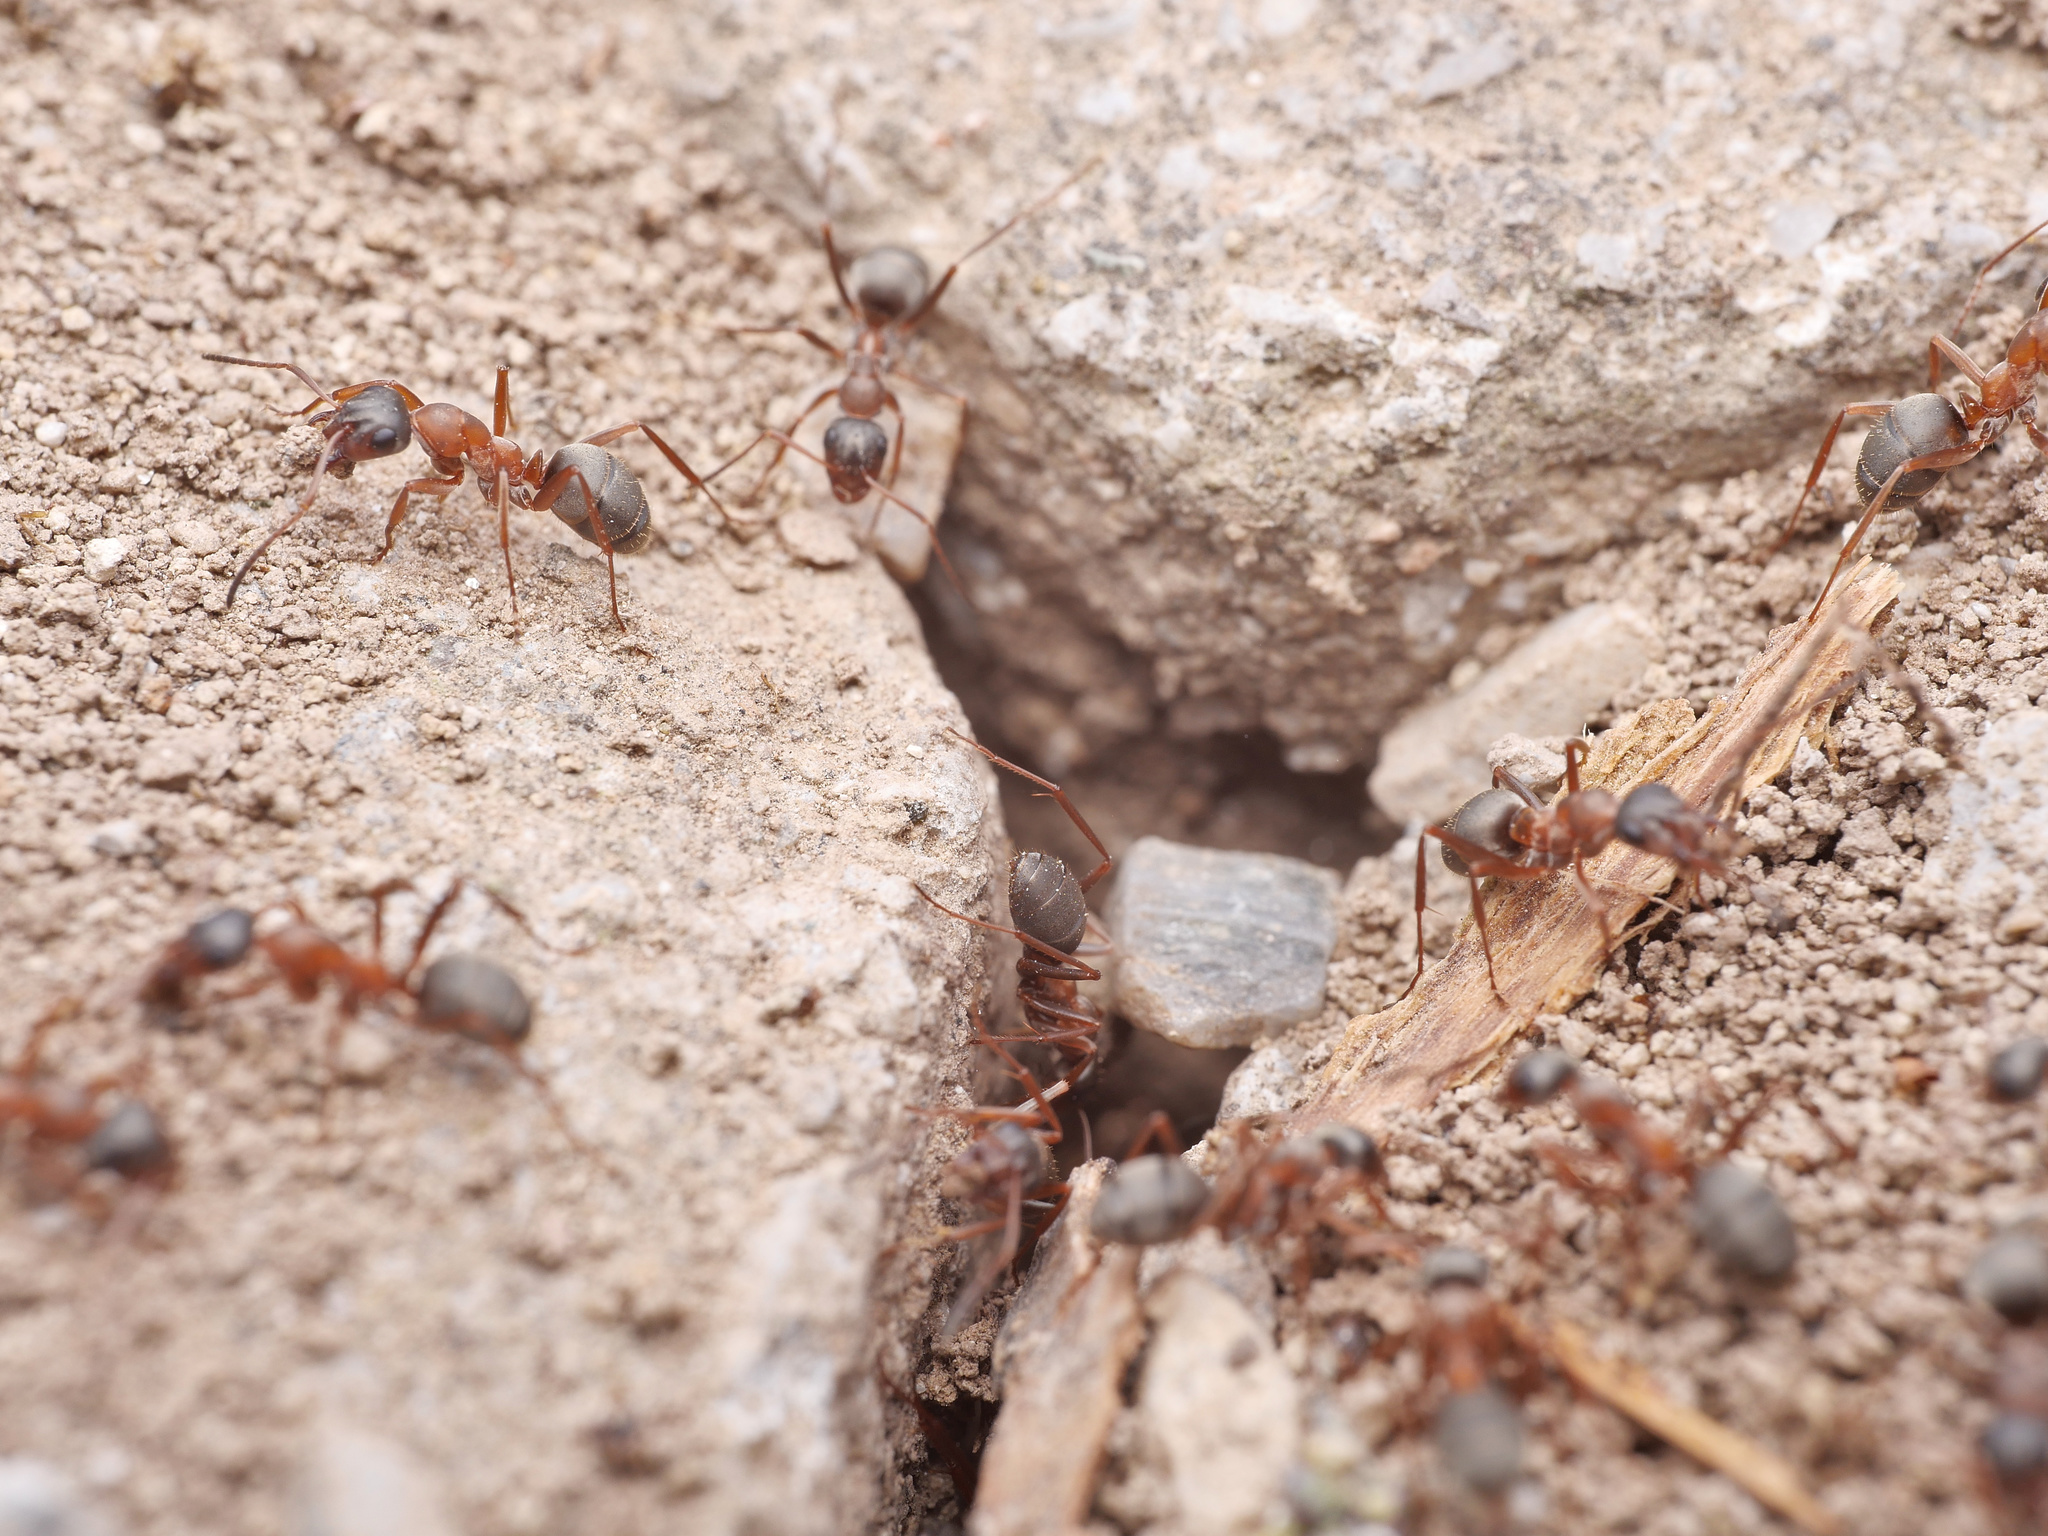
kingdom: Animalia
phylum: Arthropoda
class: Insecta
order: Hymenoptera
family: Formicidae
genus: Formica
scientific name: Formica clara
